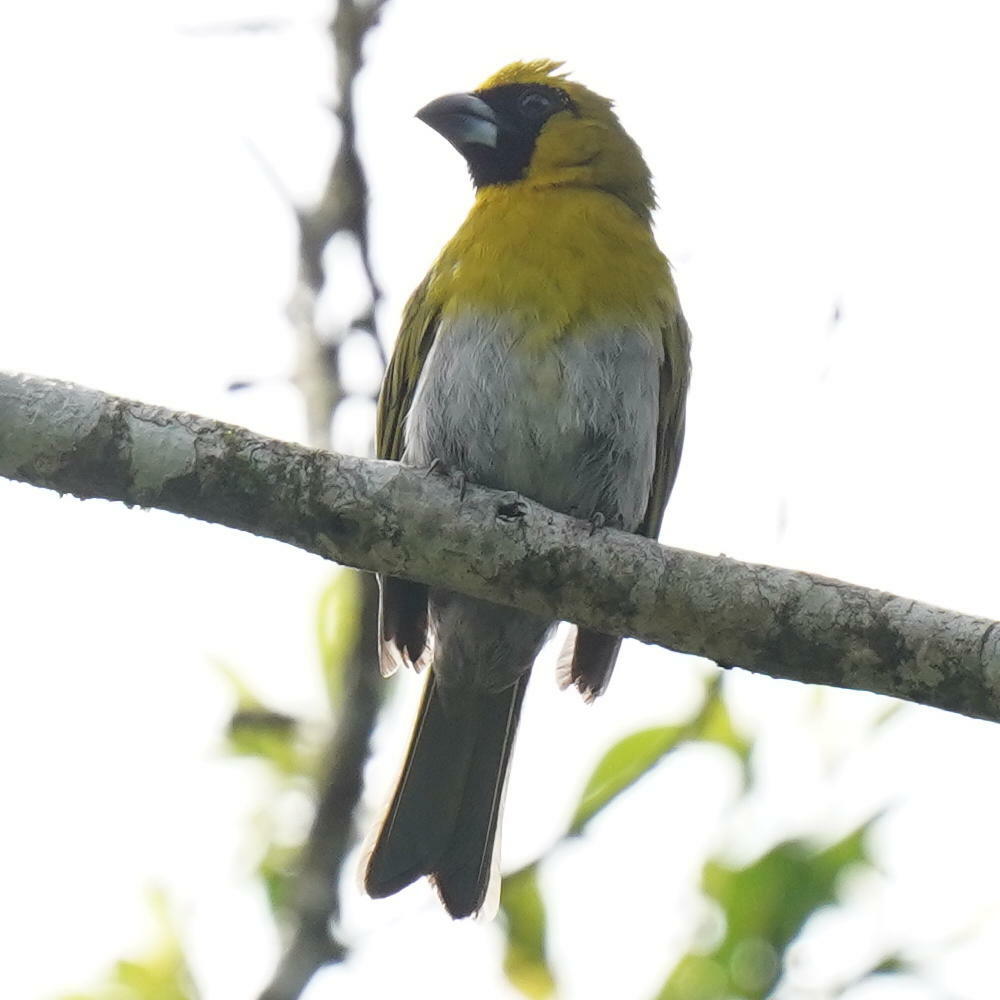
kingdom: Animalia
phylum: Chordata
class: Aves
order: Passeriformes
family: Cardinalidae
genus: Caryothraustes
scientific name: Caryothraustes poliogaster
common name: Black-faced grosbeak
